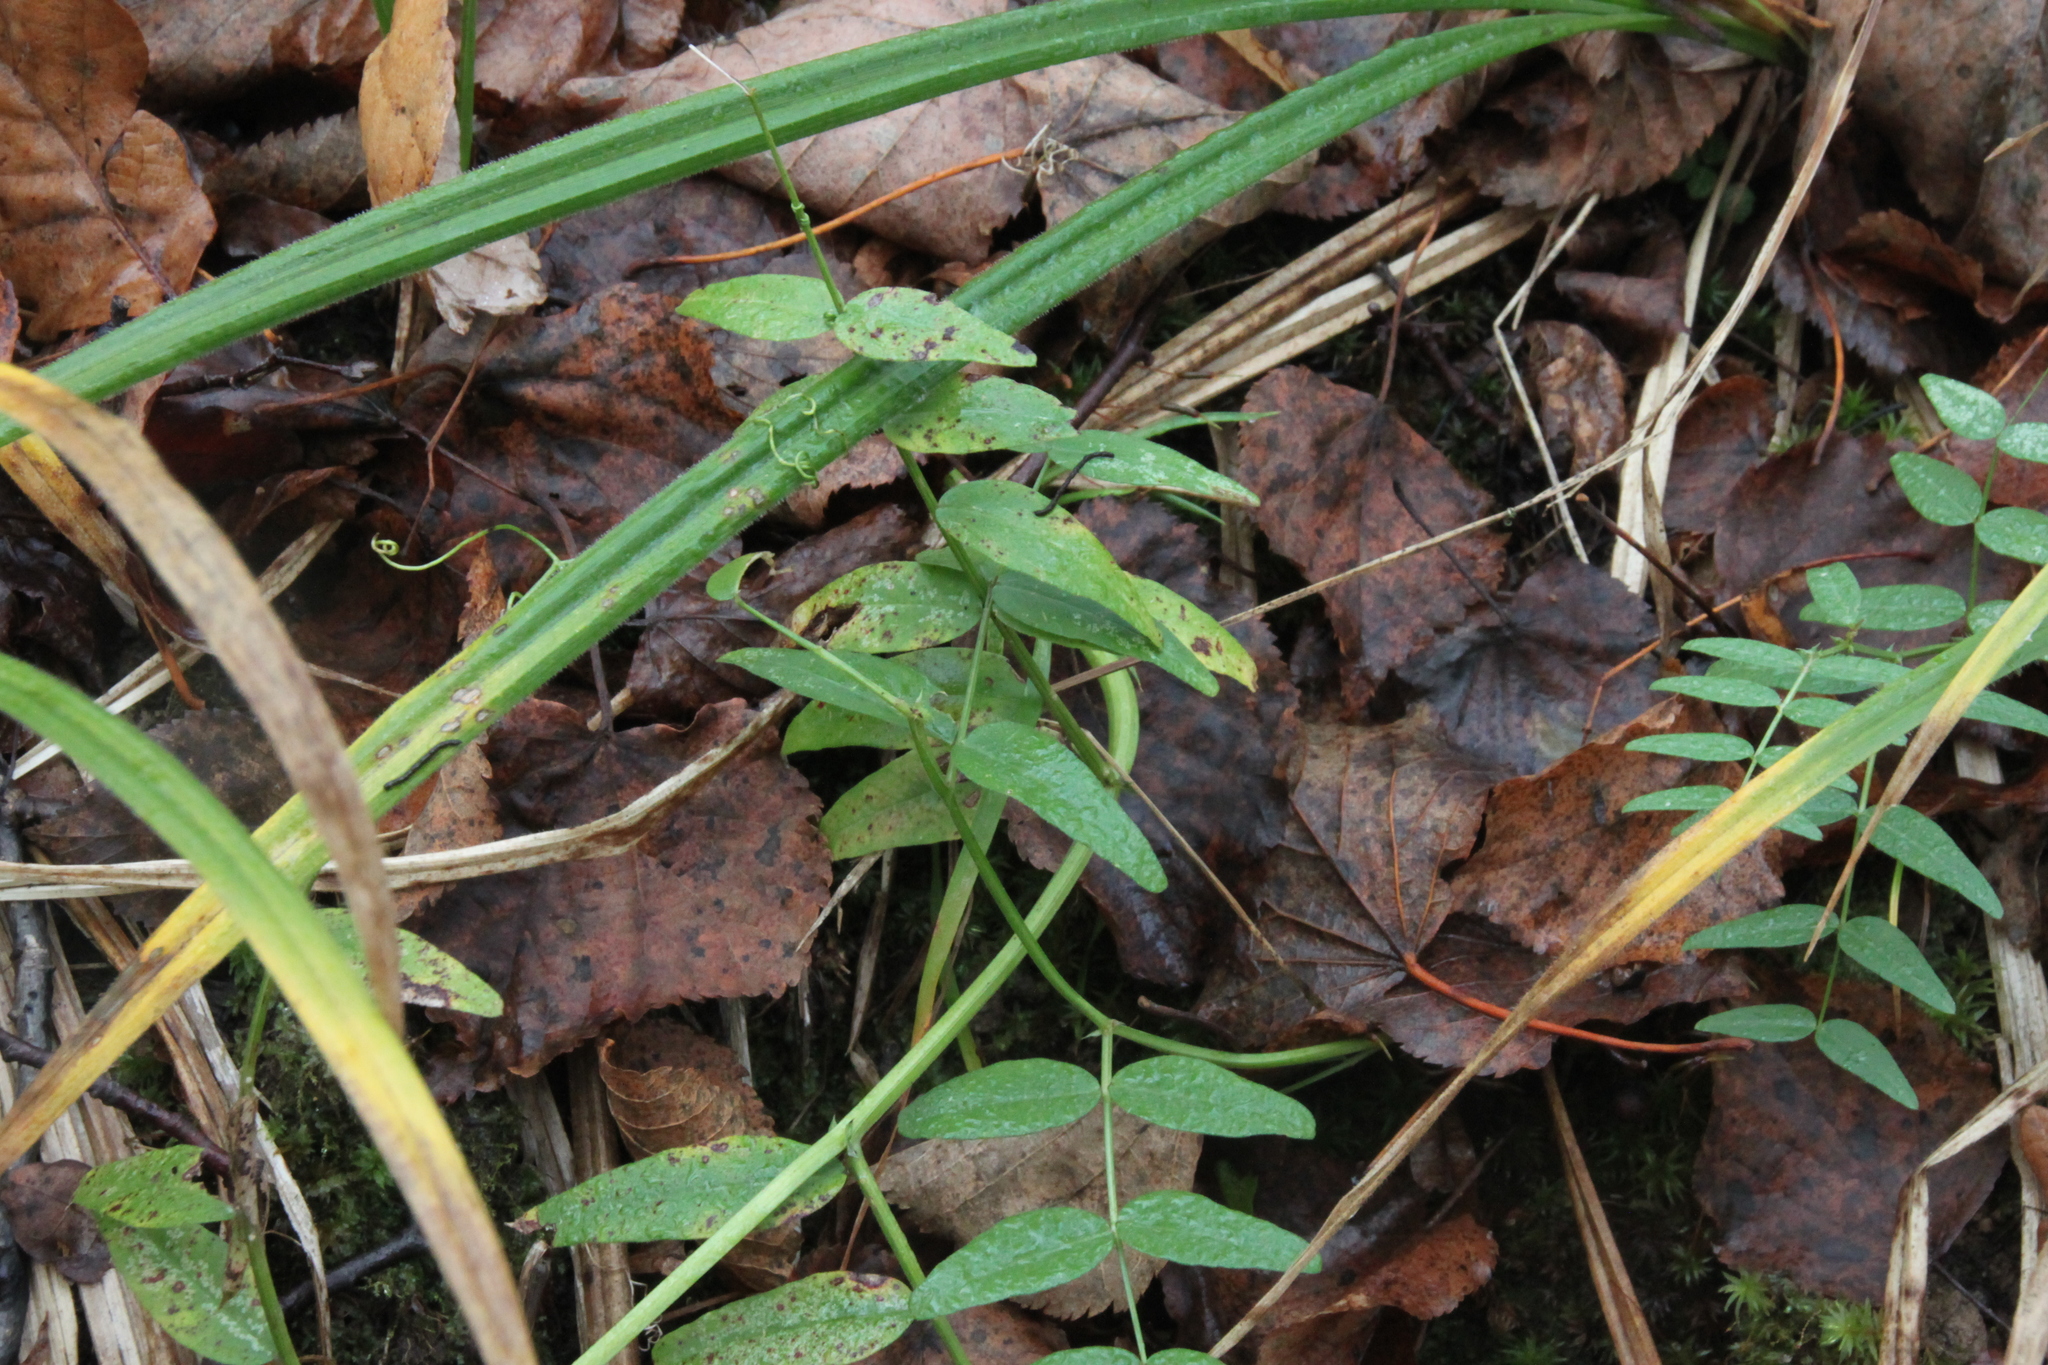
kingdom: Plantae
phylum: Tracheophyta
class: Magnoliopsida
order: Fabales
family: Fabaceae
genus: Vicia
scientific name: Vicia sepium
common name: Bush vetch
